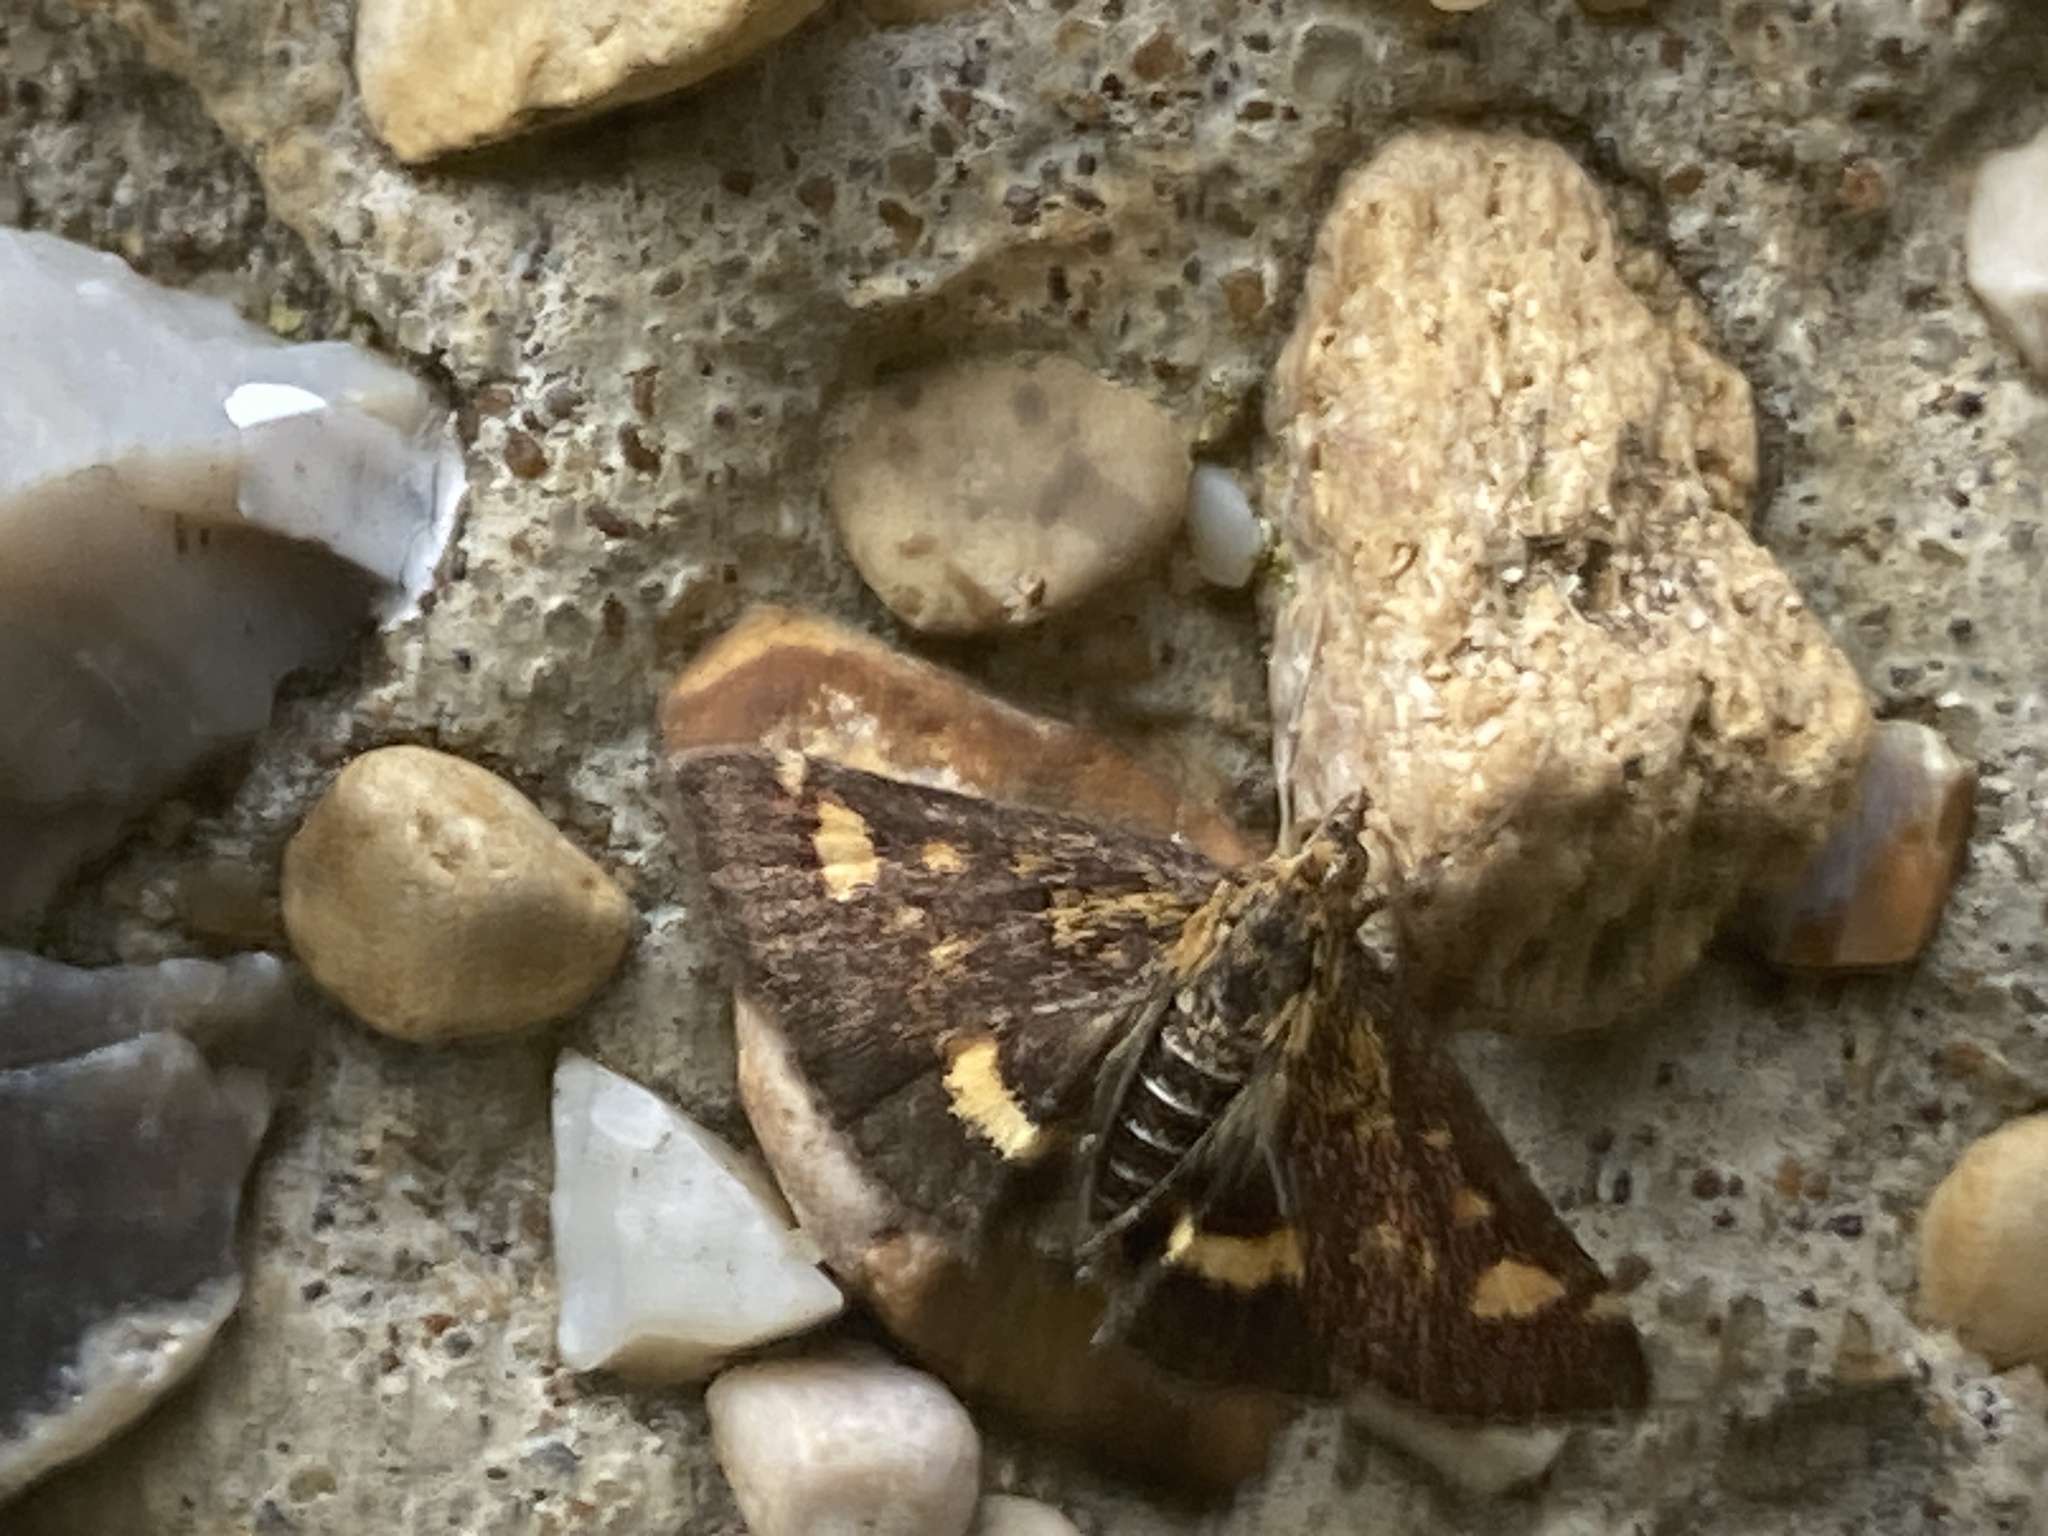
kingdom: Animalia
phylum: Arthropoda
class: Insecta
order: Lepidoptera
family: Crambidae
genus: Pyrausta
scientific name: Pyrausta aurata
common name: Small purple & gold
